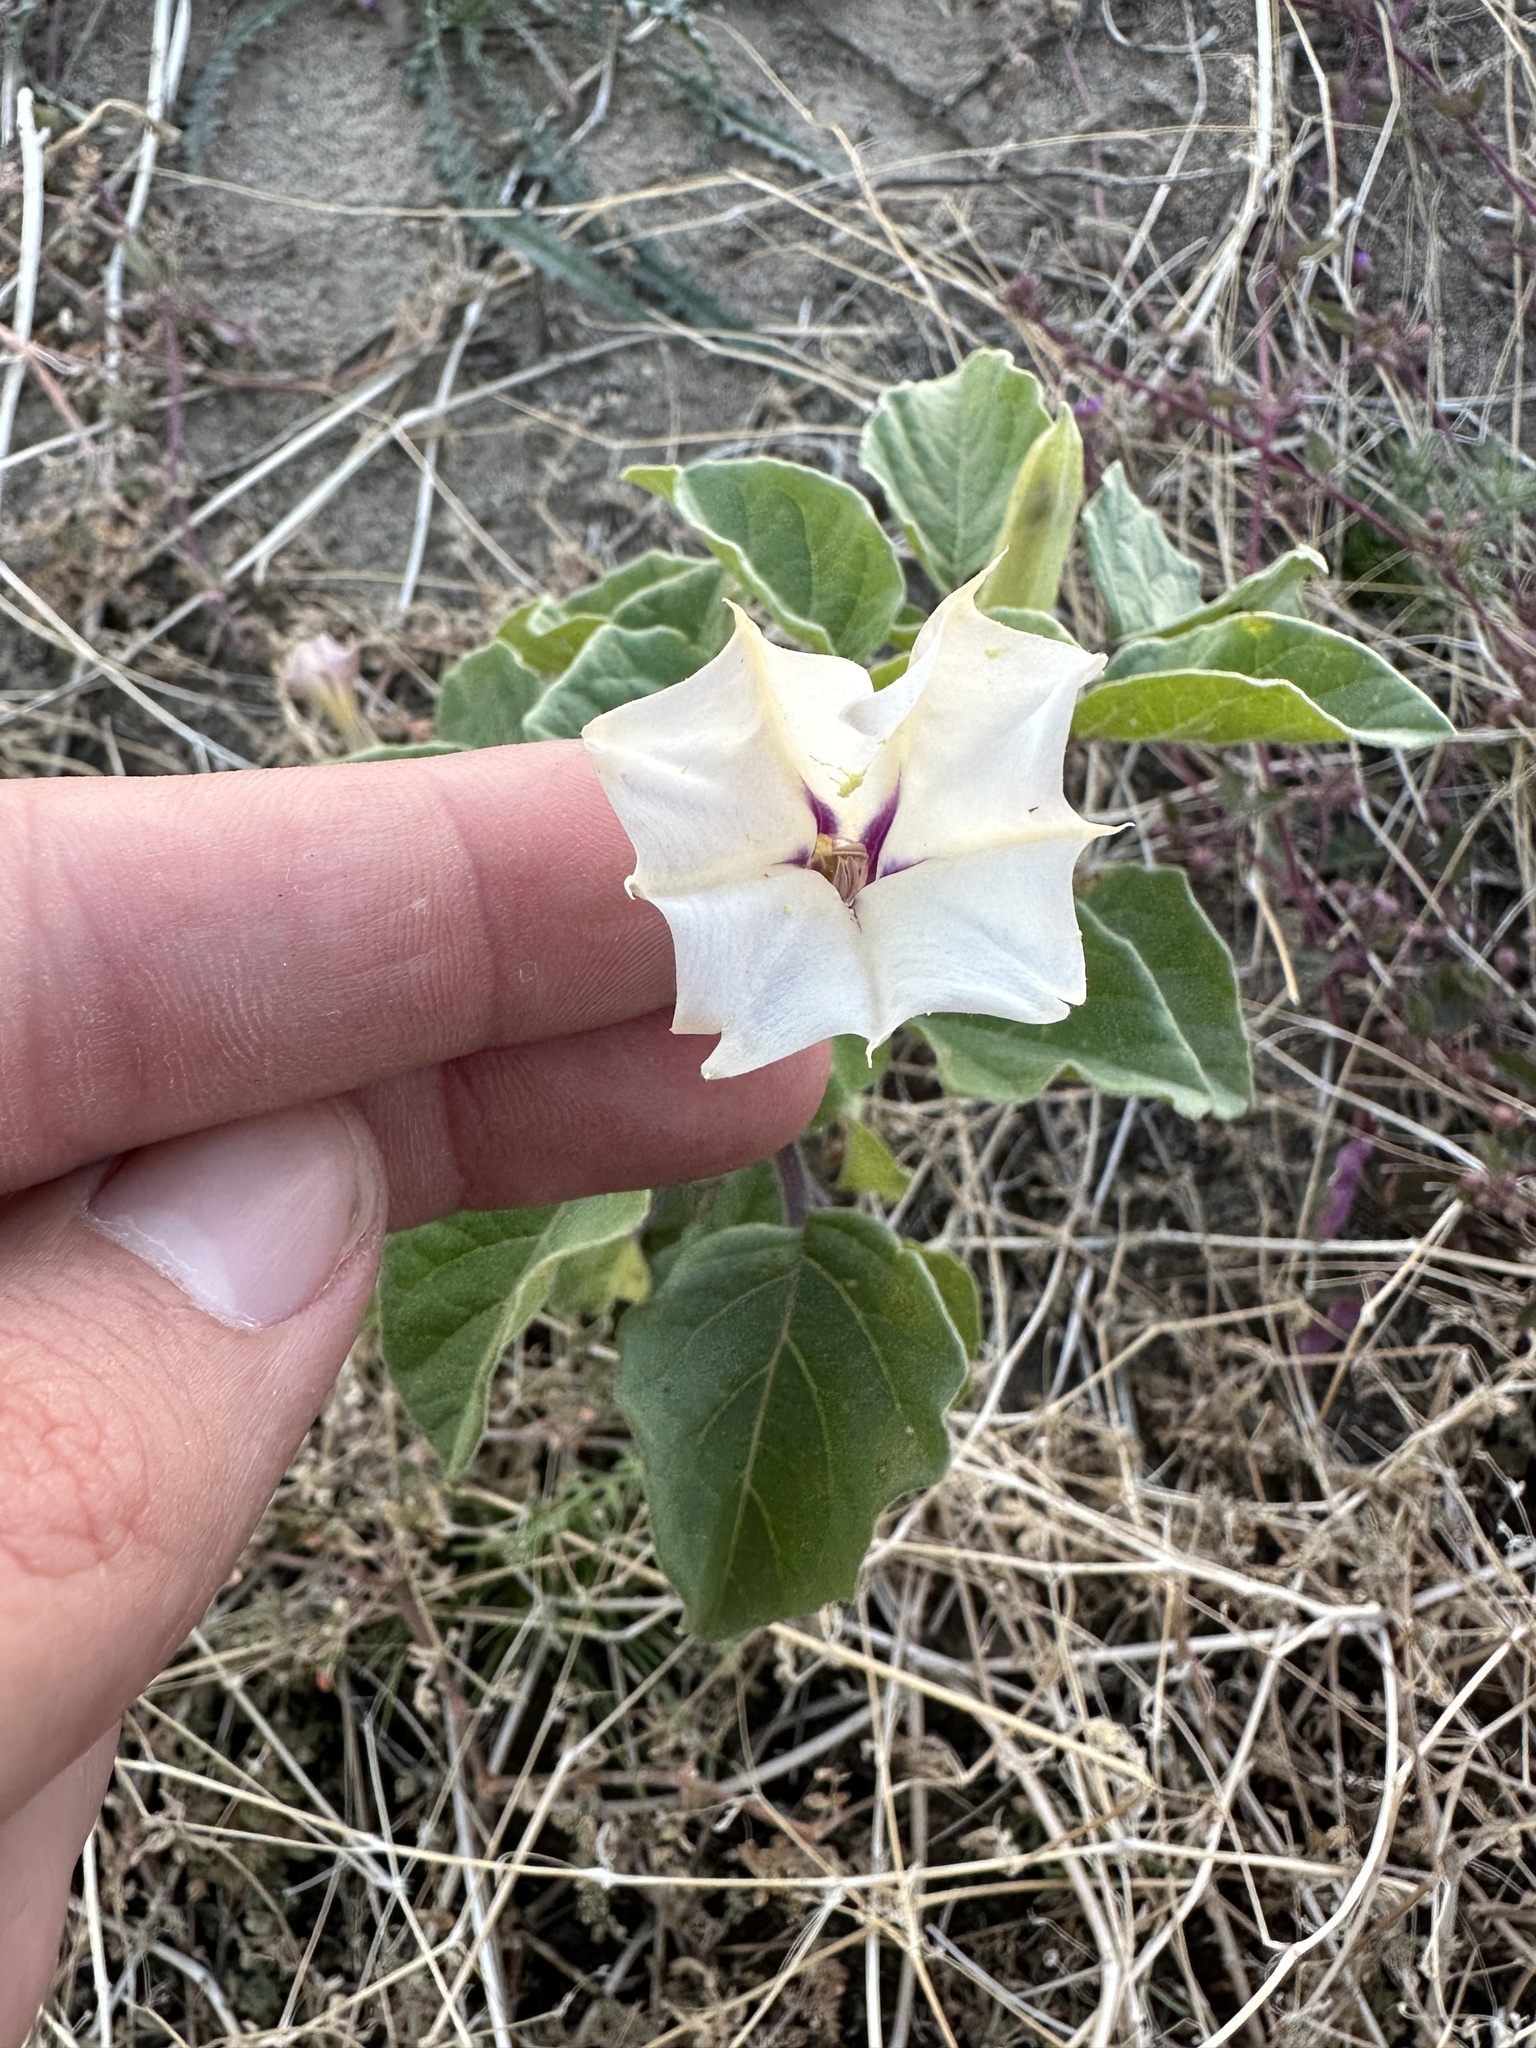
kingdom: Plantae
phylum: Tracheophyta
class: Magnoliopsida
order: Solanales
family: Solanaceae
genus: Datura
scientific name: Datura discolor
